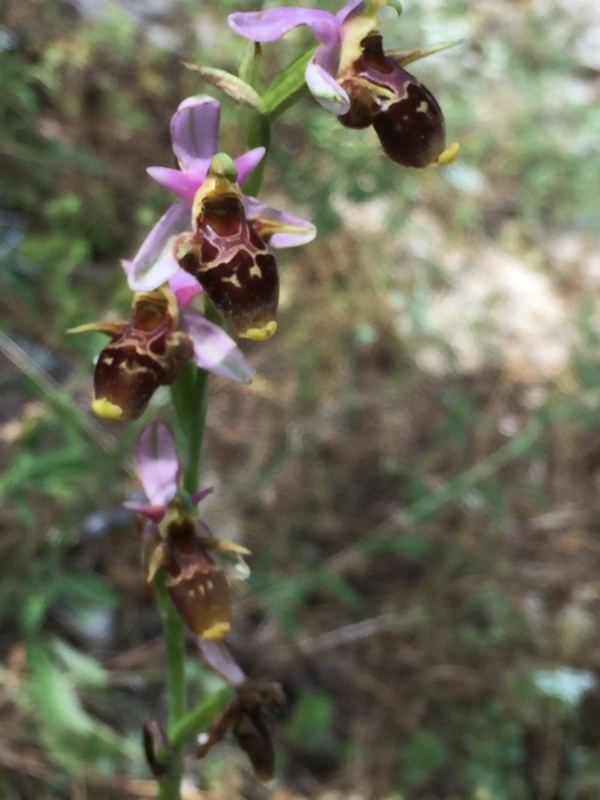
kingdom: Plantae
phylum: Tracheophyta
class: Liliopsida
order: Asparagales
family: Orchidaceae
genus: Ophrys
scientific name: Ophrys
